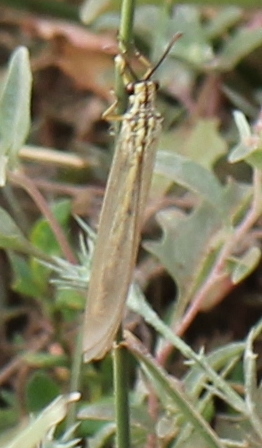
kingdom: Animalia
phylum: Arthropoda
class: Insecta
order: Neuroptera
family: Myrmeleontidae
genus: Myrmecaelurus
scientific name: Myrmecaelurus trigrammus
